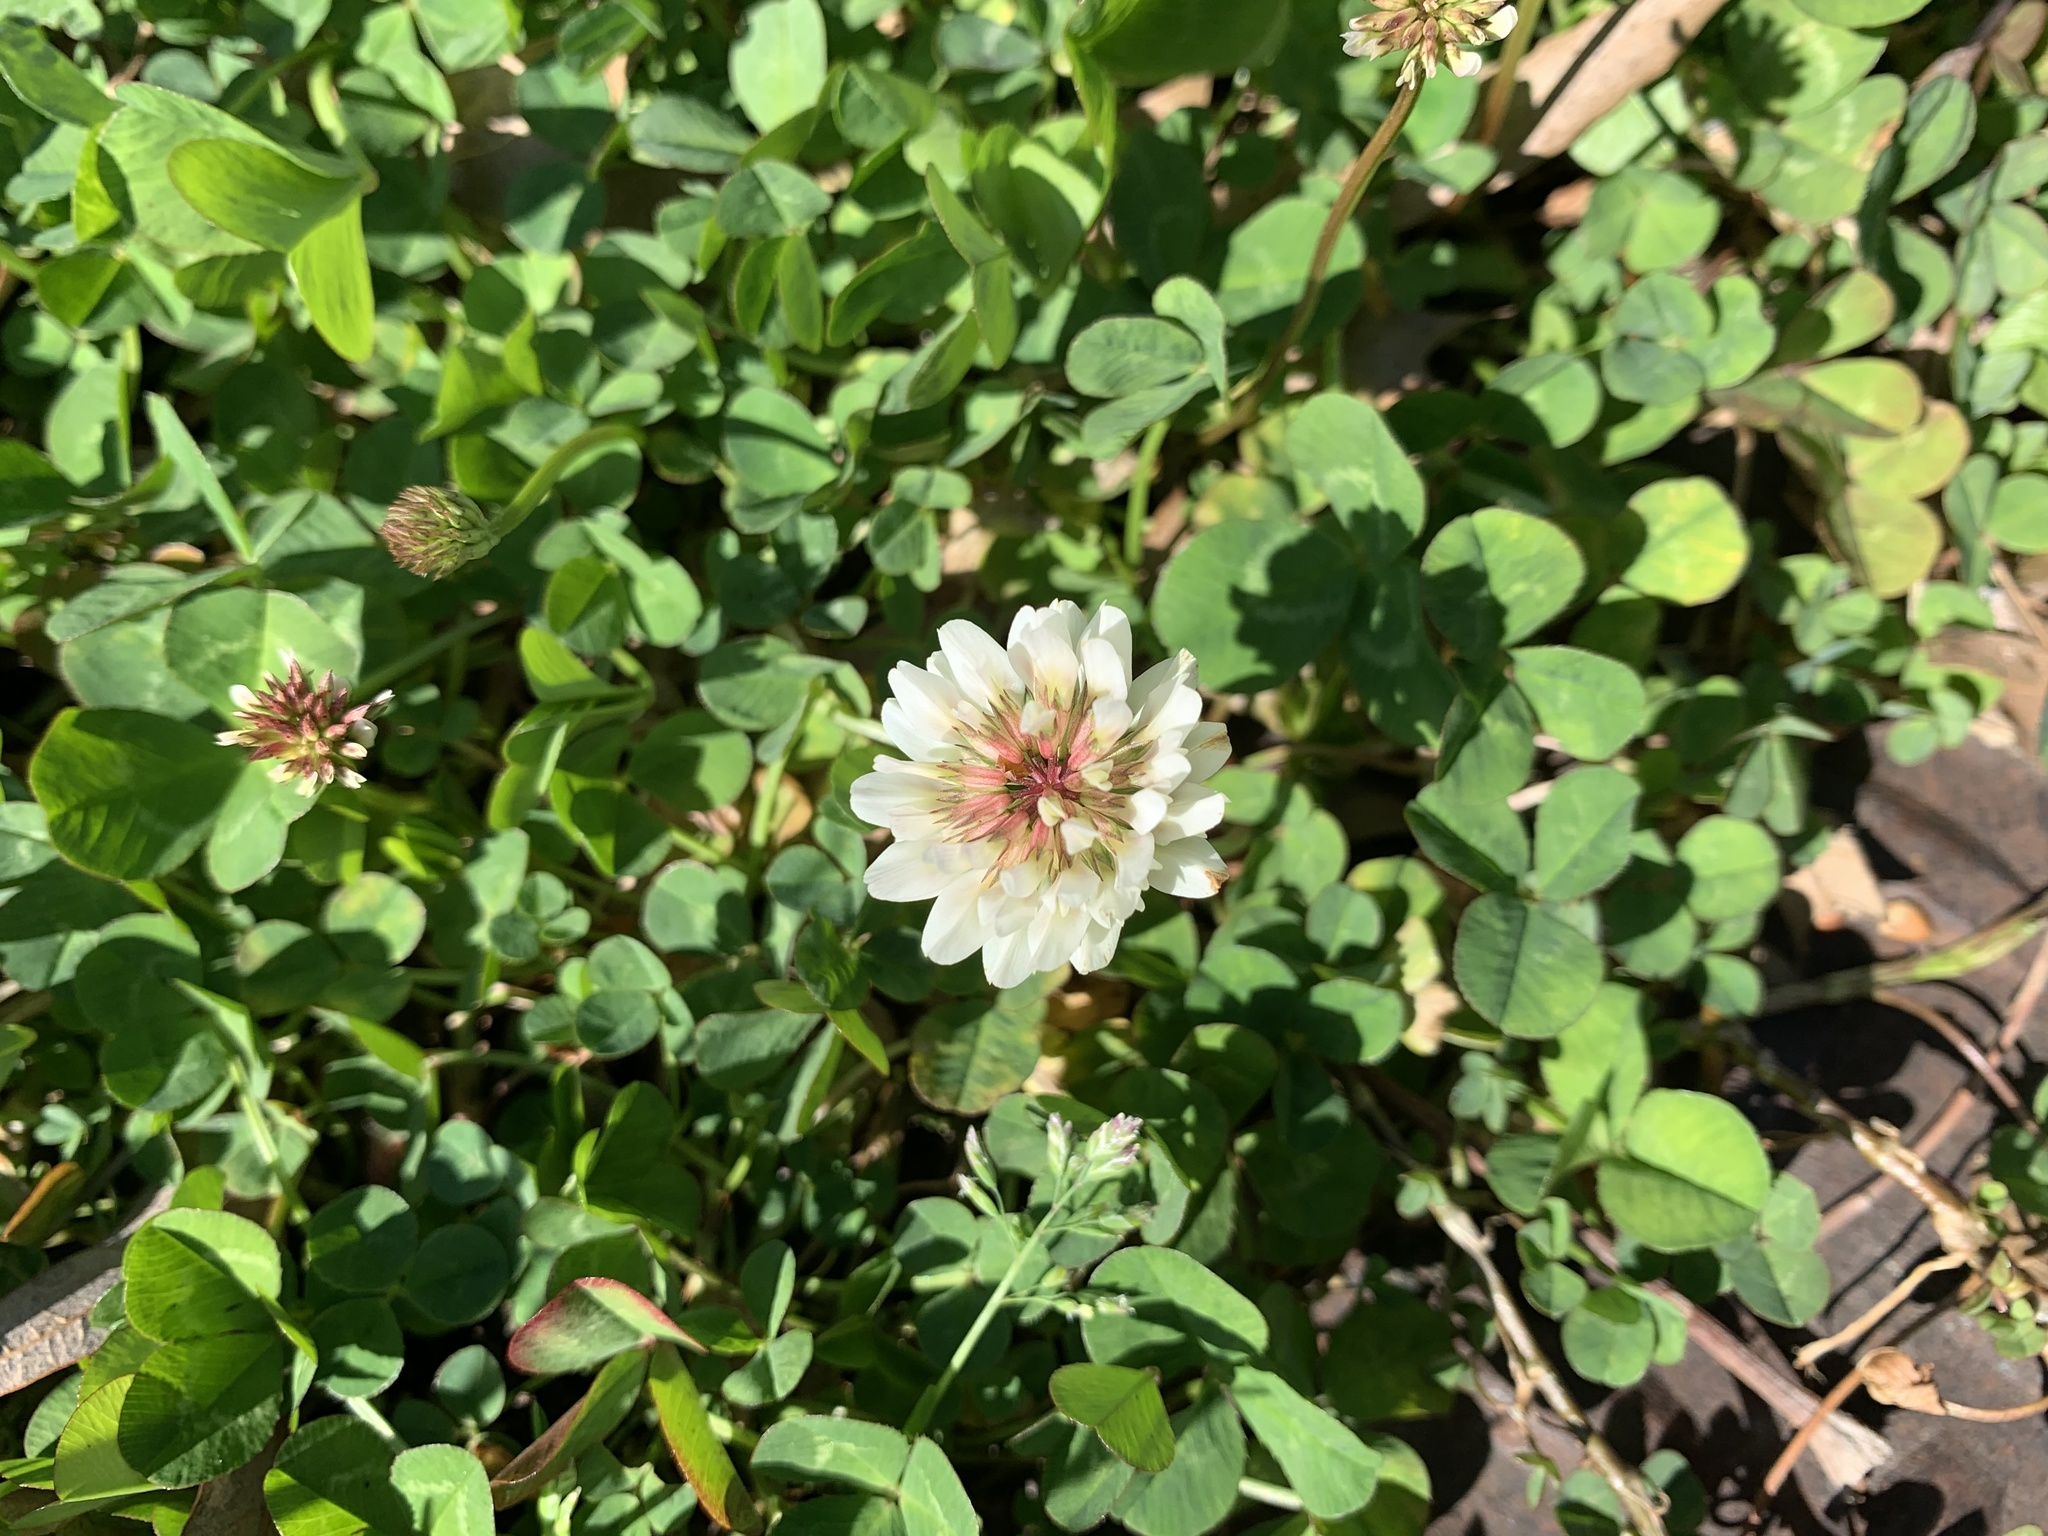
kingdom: Plantae
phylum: Tracheophyta
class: Magnoliopsida
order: Fabales
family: Fabaceae
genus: Trifolium
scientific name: Trifolium repens
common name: White clover
